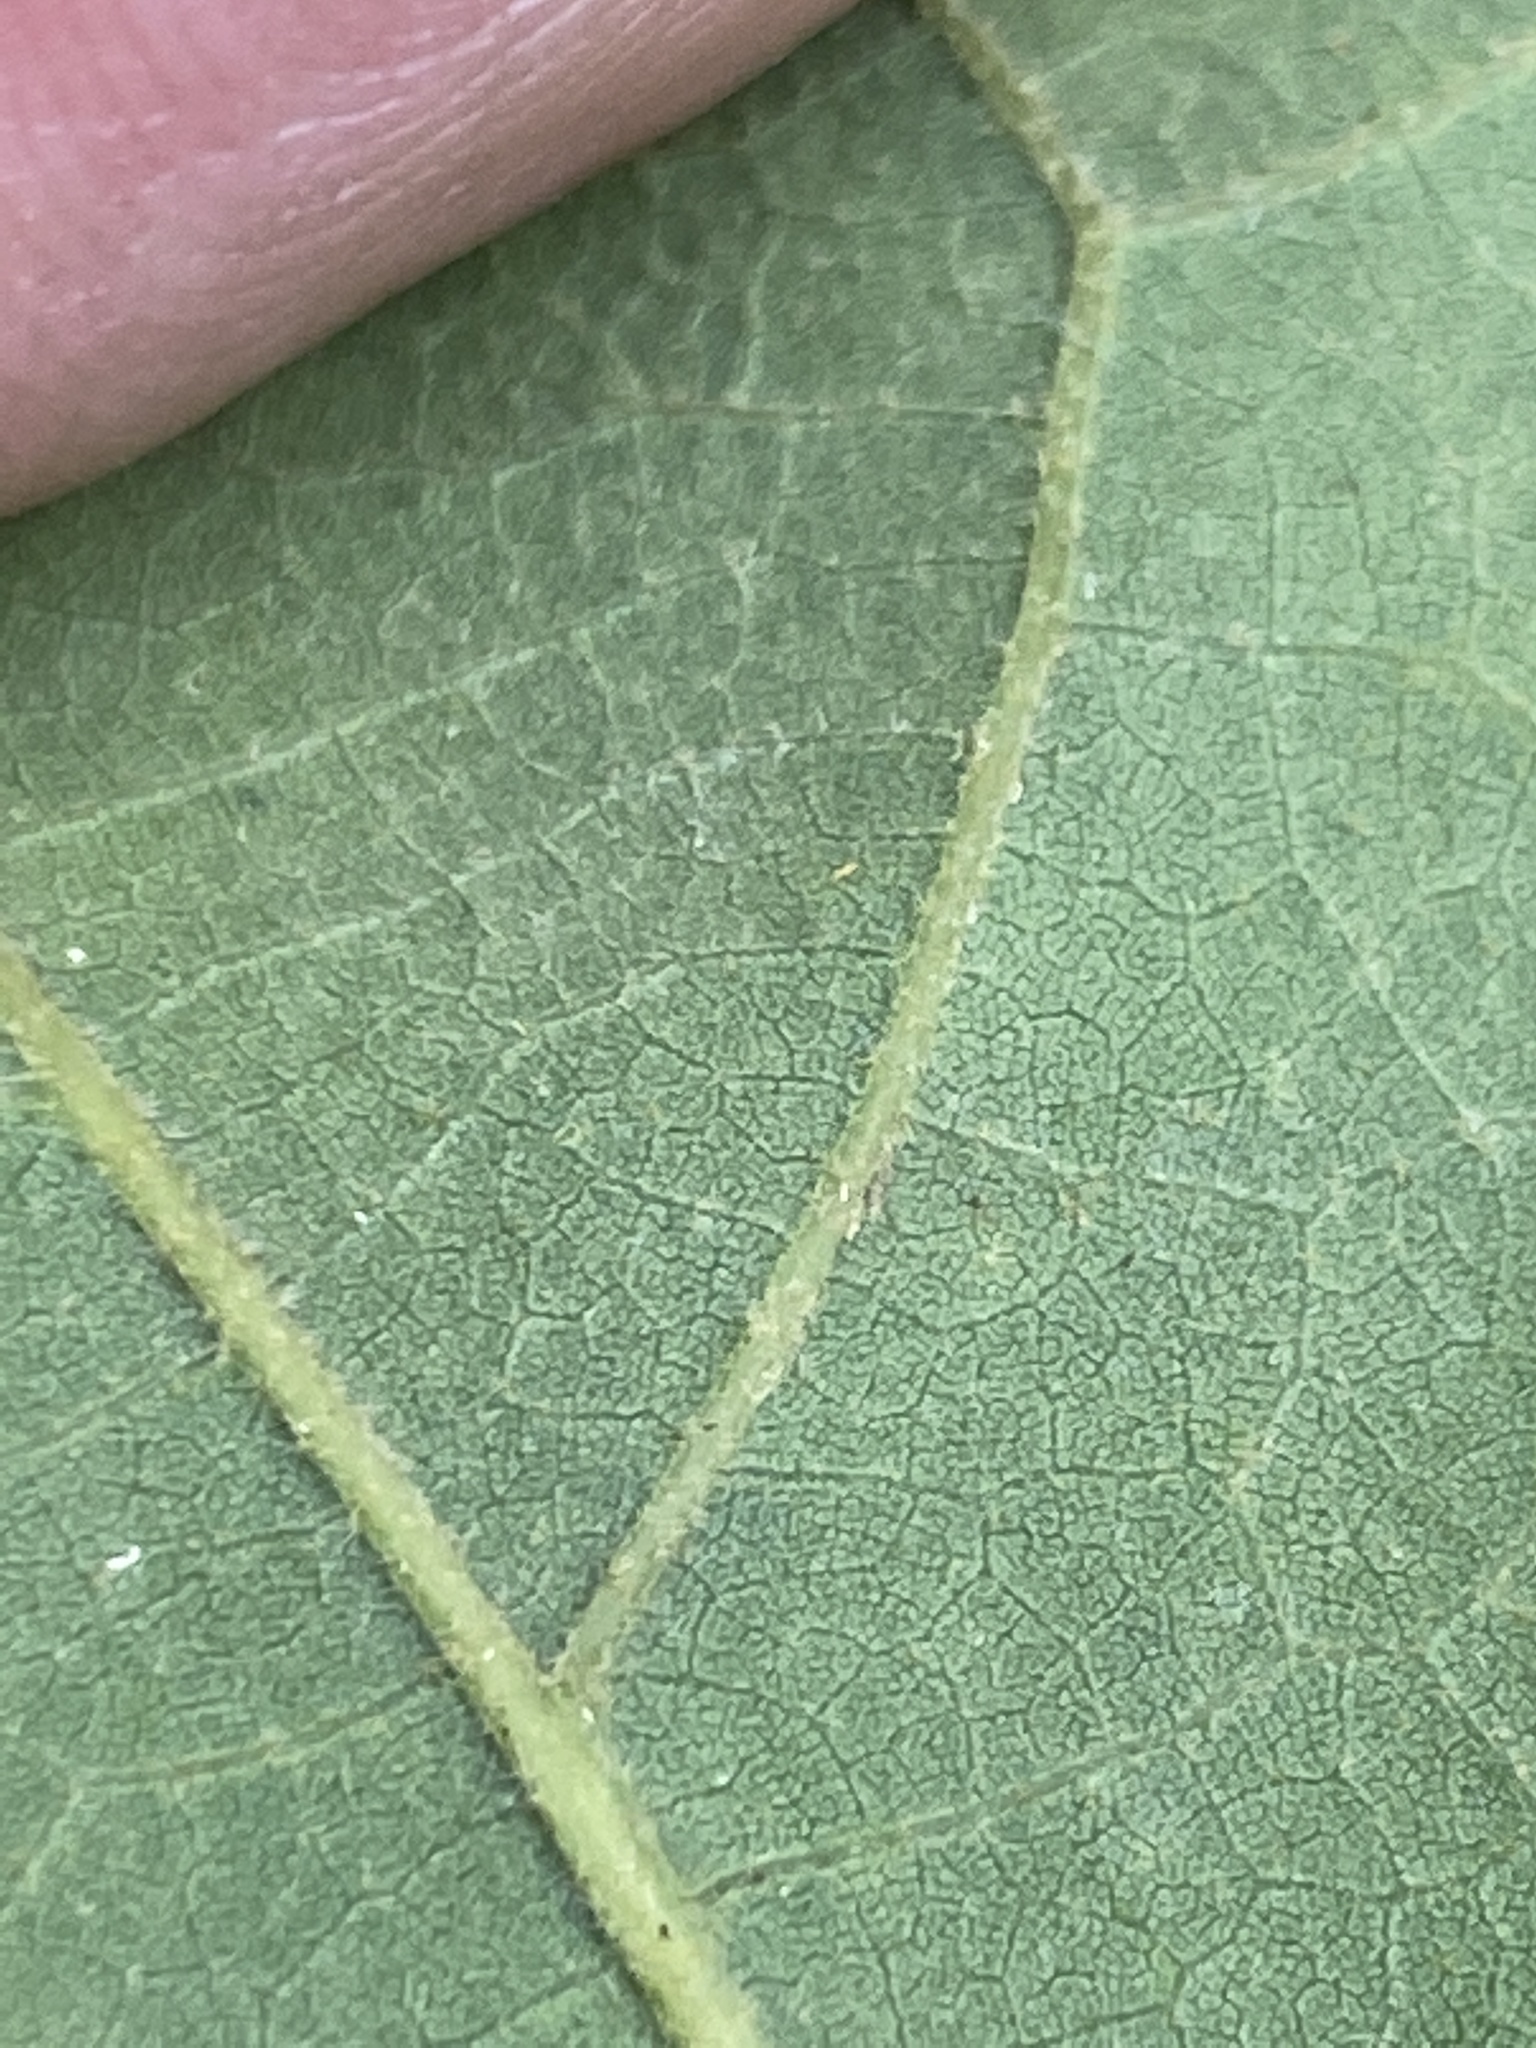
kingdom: Plantae
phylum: Tracheophyta
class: Magnoliopsida
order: Fagales
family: Fagaceae
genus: Quercus
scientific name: Quercus stellata
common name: Post oak
